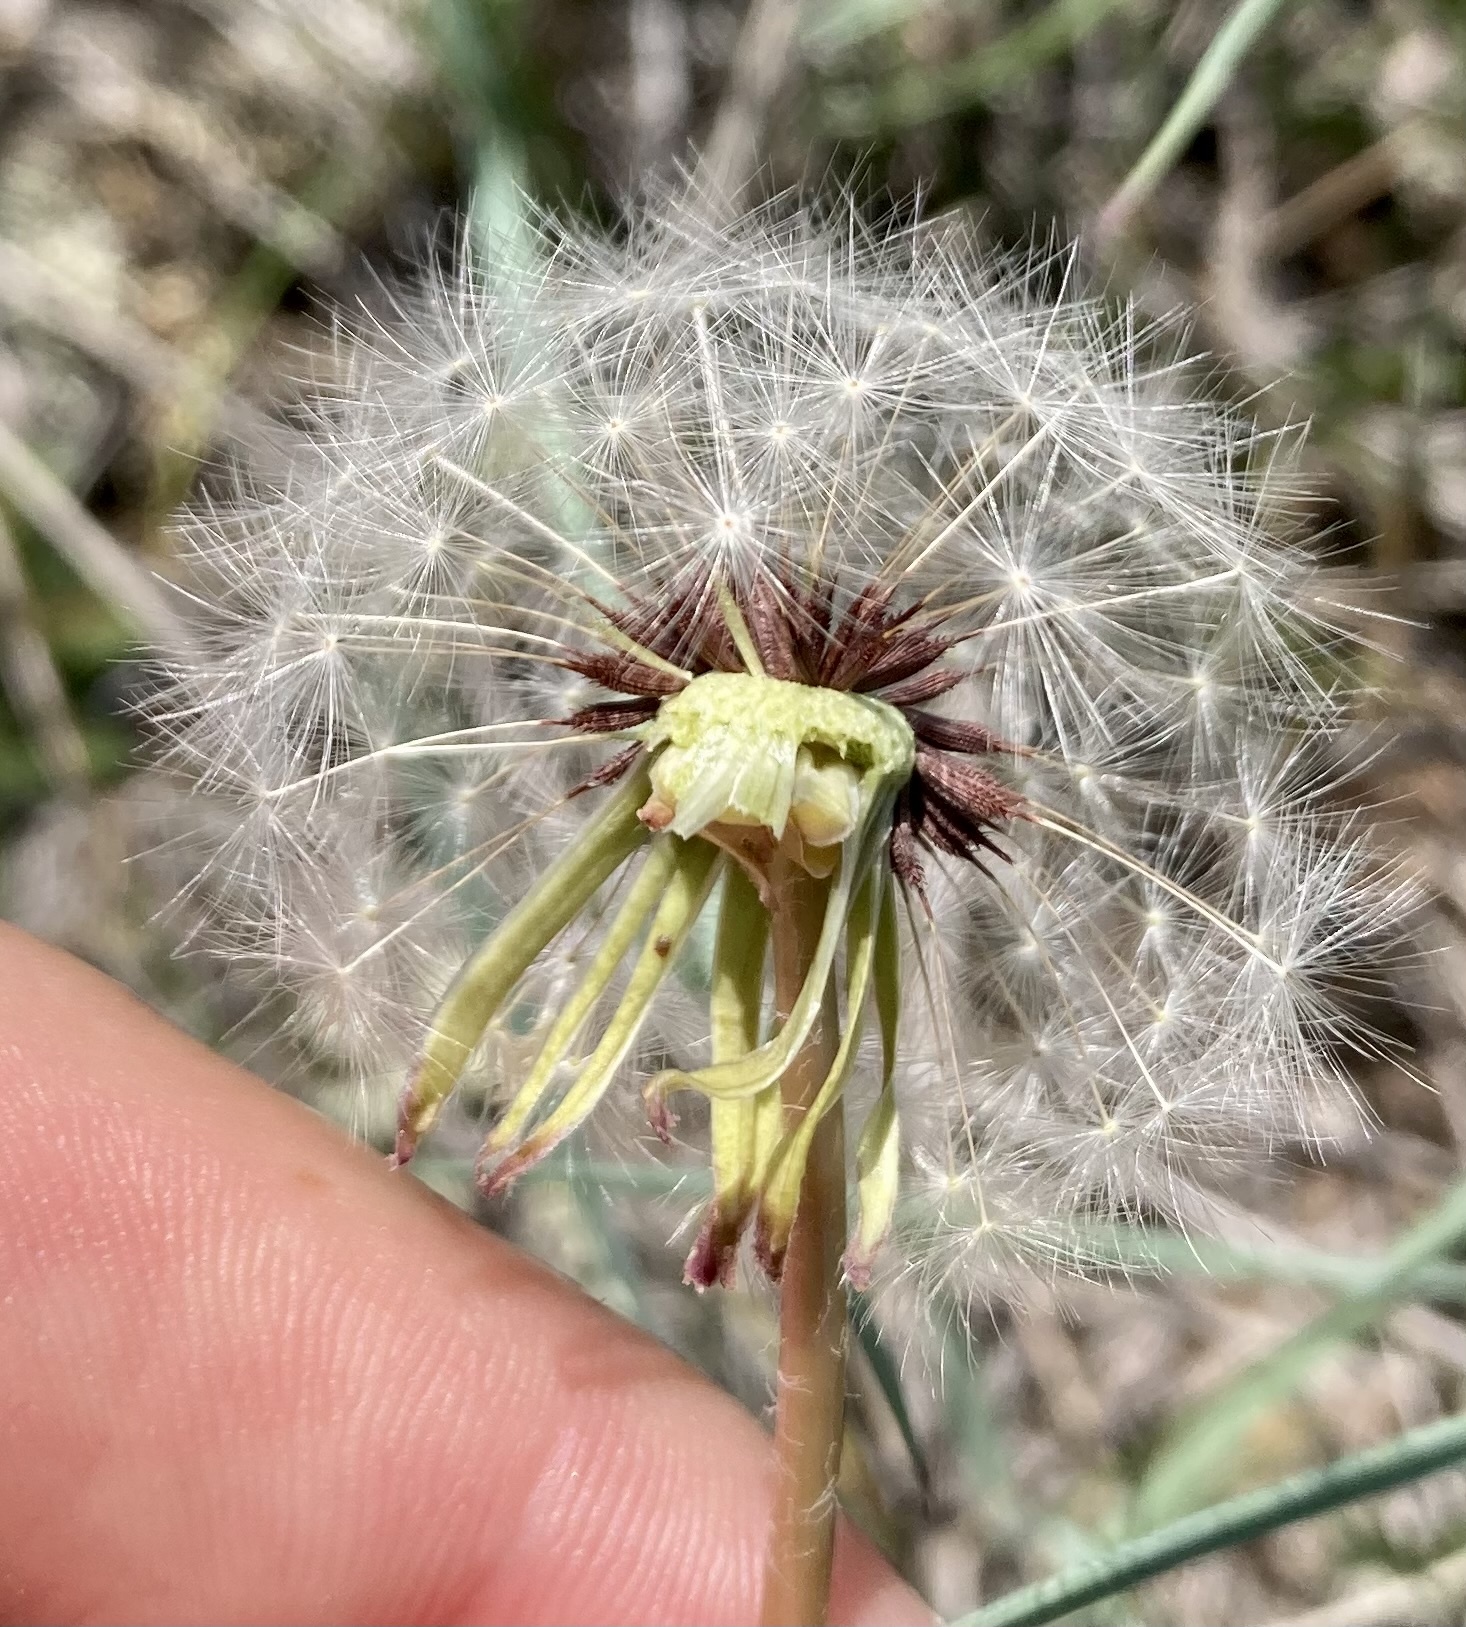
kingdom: Plantae
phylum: Tracheophyta
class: Magnoliopsida
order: Asterales
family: Asteraceae
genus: Taraxacum
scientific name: Taraxacum erythrospermum
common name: Rock dandelion
